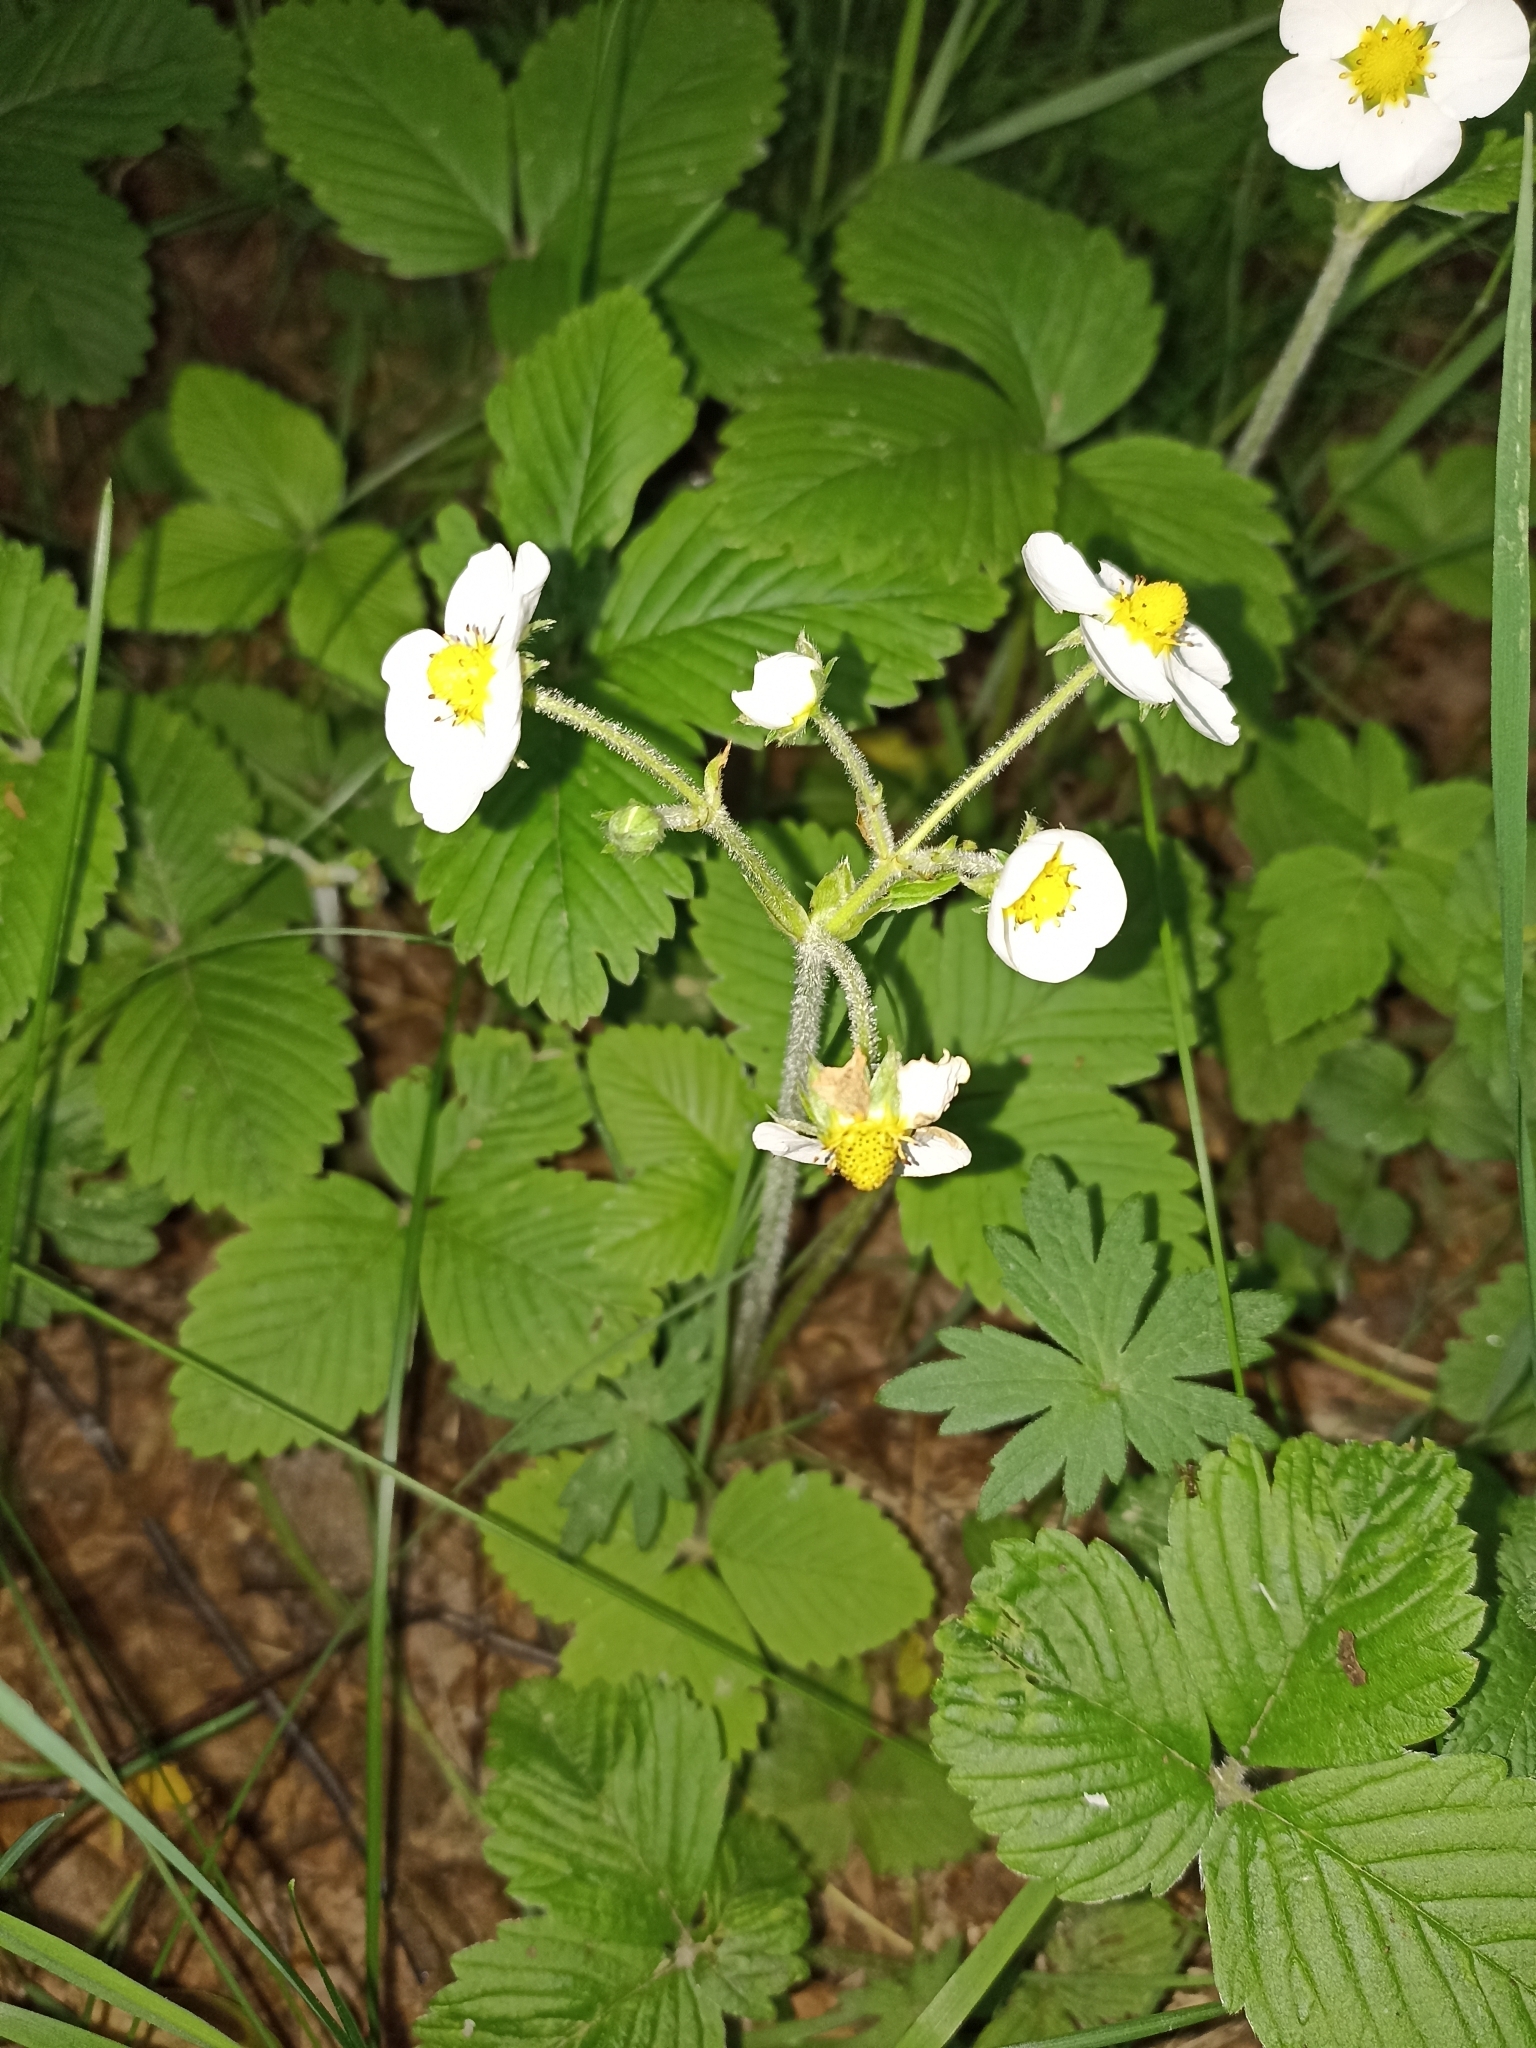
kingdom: Plantae
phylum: Tracheophyta
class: Magnoliopsida
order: Rosales
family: Rosaceae
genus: Fragaria
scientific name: Fragaria moschata
